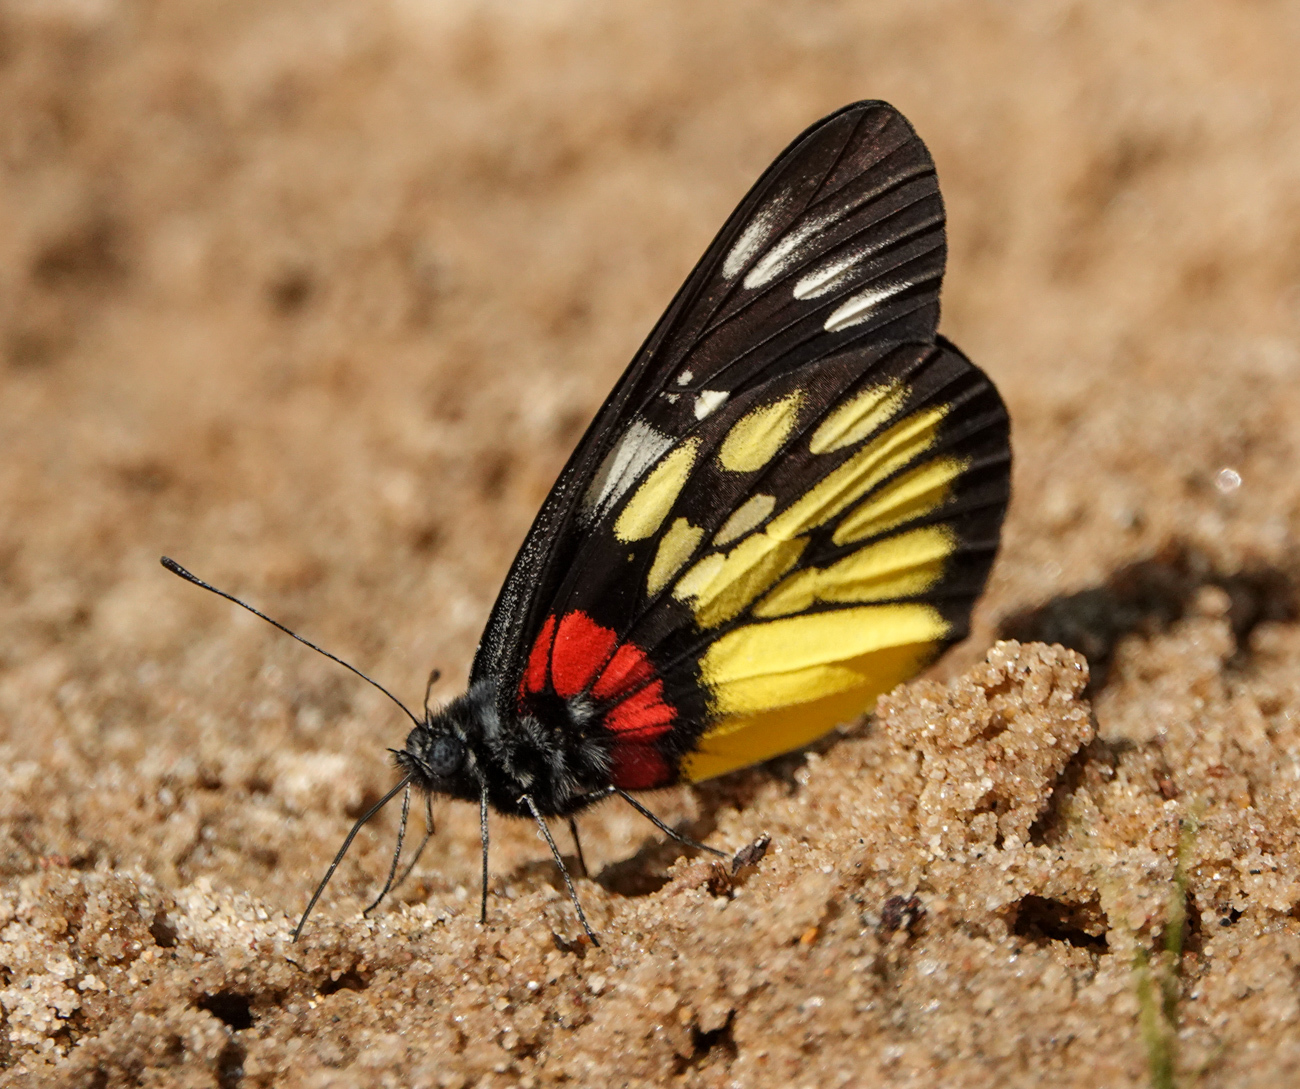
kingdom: Animalia
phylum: Arthropoda
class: Insecta
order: Lepidoptera
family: Pieridae
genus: Delias
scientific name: Delias pasithoe
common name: Red-base jezebel
